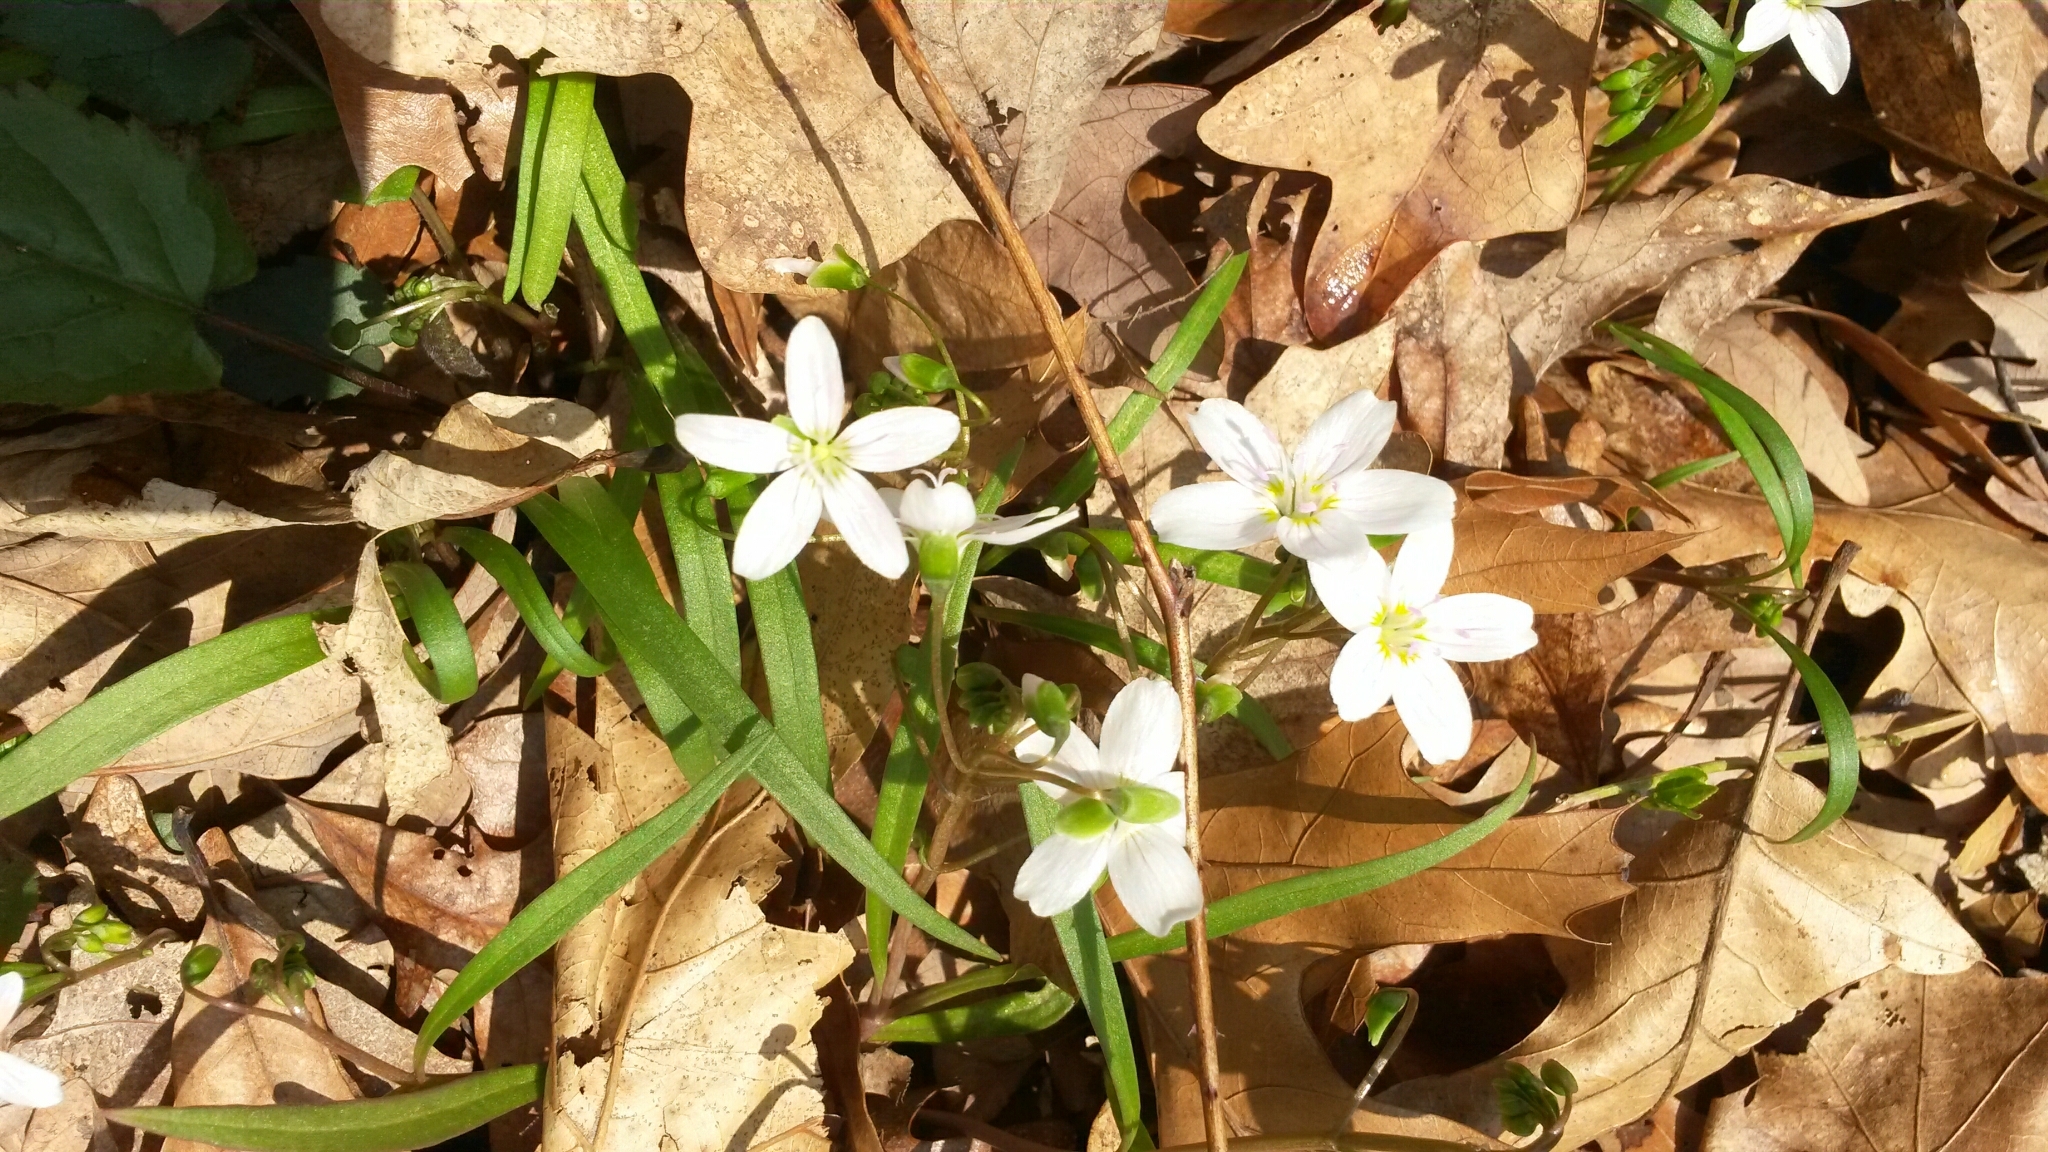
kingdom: Plantae
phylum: Tracheophyta
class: Magnoliopsida
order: Caryophyllales
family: Montiaceae
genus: Claytonia
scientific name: Claytonia virginica
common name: Virginia springbeauty
